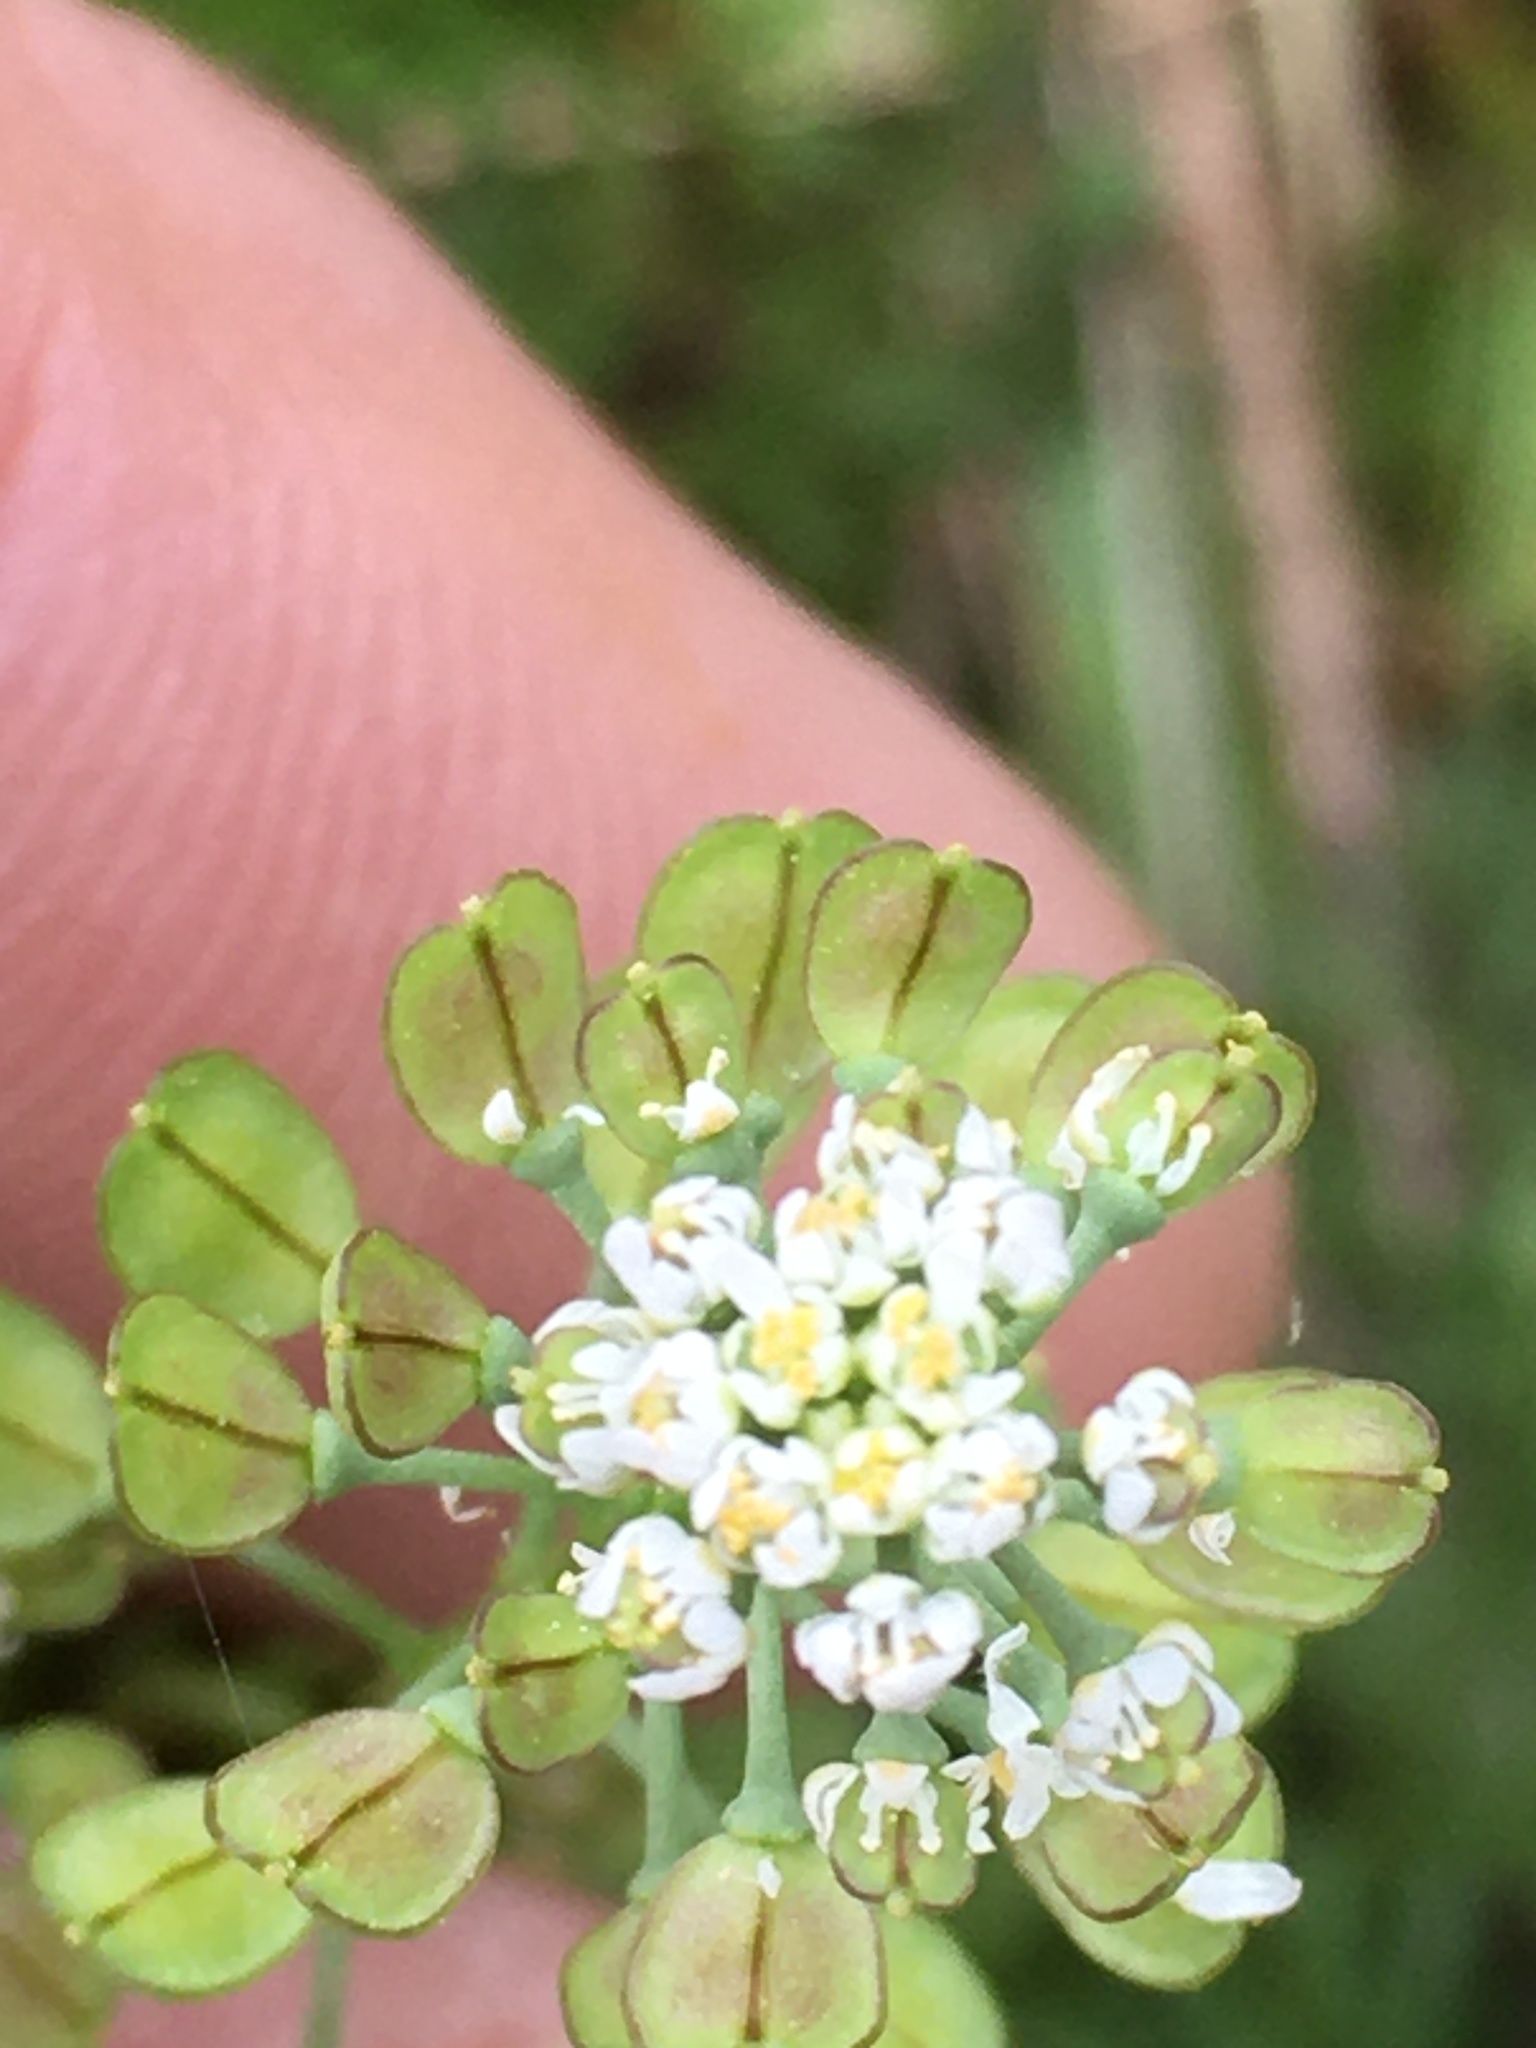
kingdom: Plantae
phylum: Tracheophyta
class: Magnoliopsida
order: Brassicales
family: Brassicaceae
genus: Teesdalia
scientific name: Teesdalia nudicaulis
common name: Shepherd's cress
